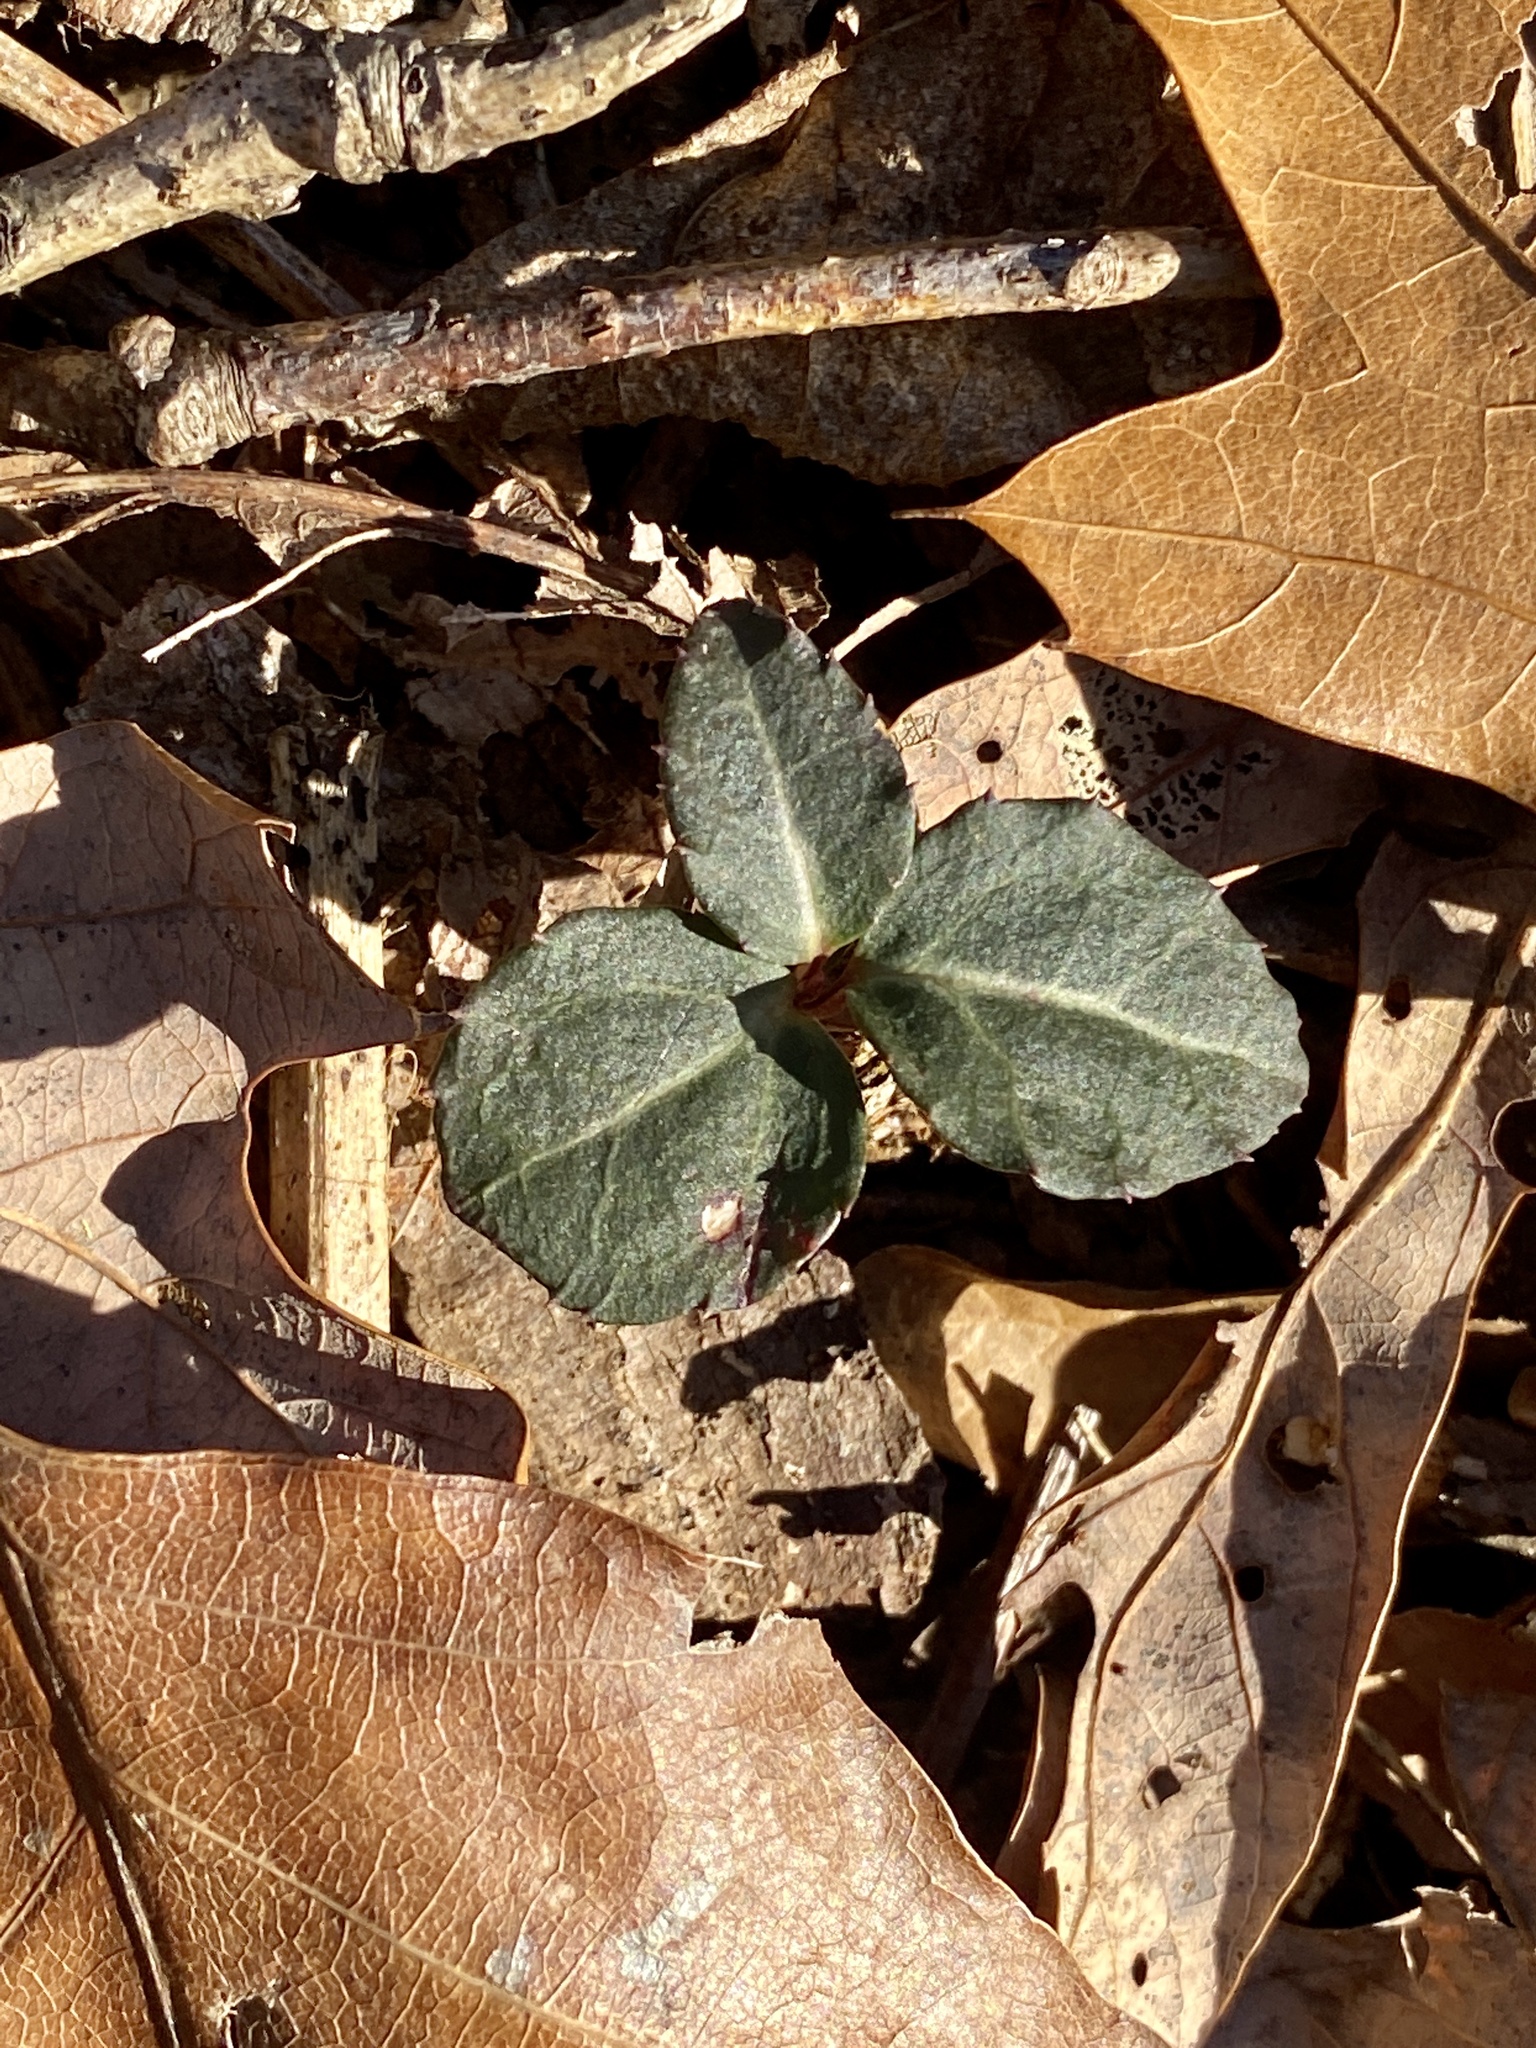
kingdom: Plantae
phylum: Tracheophyta
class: Magnoliopsida
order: Ericales
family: Ericaceae
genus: Chimaphila
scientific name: Chimaphila maculata
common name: Spotted pipsissewa
